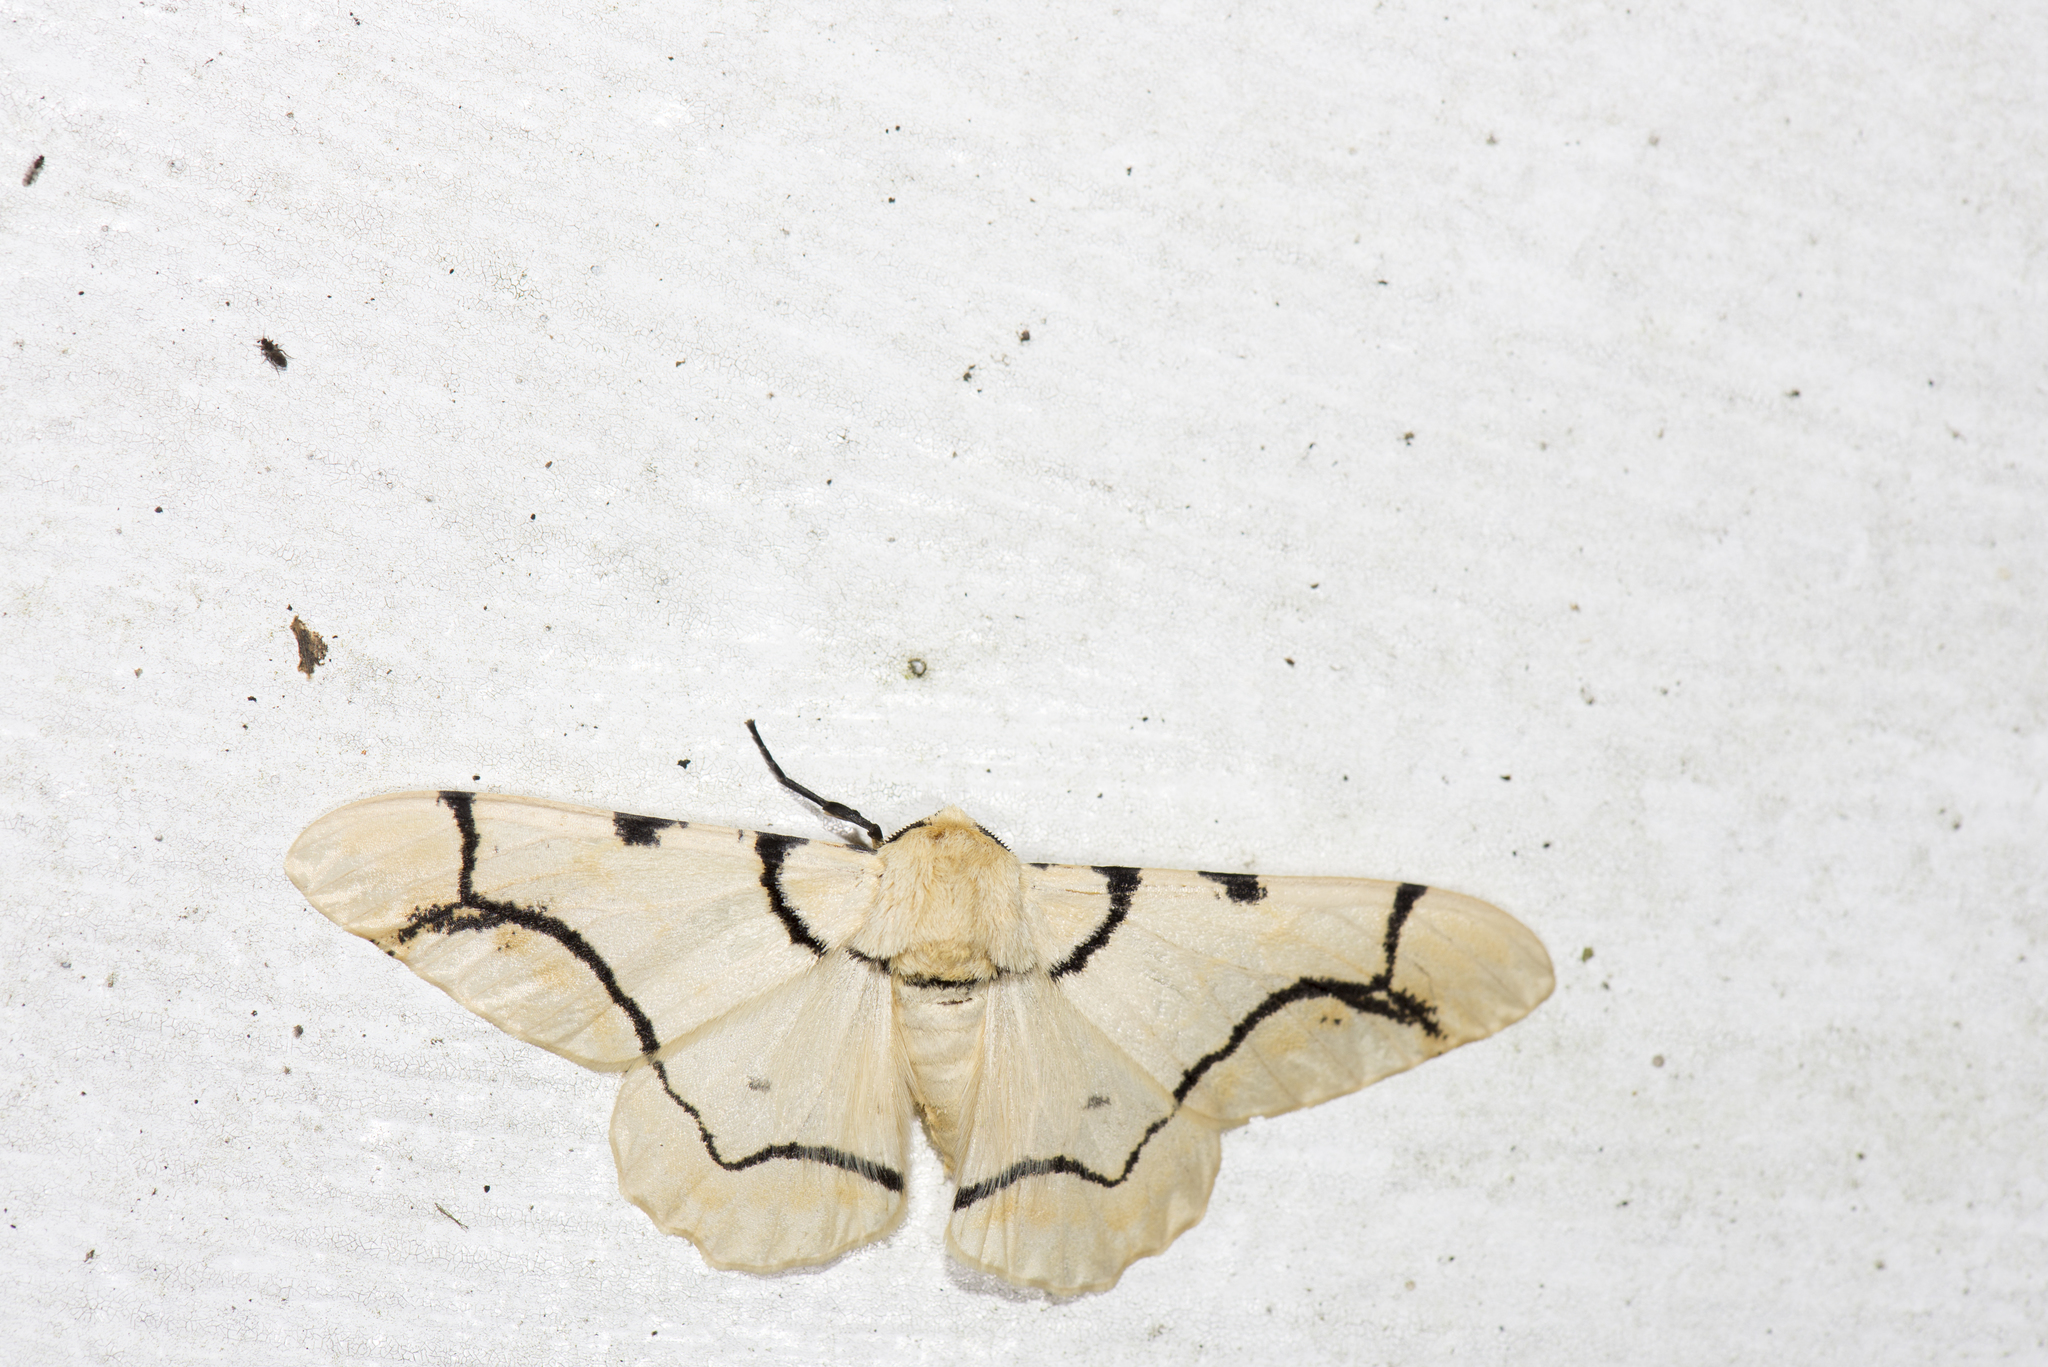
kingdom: Animalia
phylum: Arthropoda
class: Insecta
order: Lepidoptera
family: Geometridae
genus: Biston
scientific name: Biston perclara
